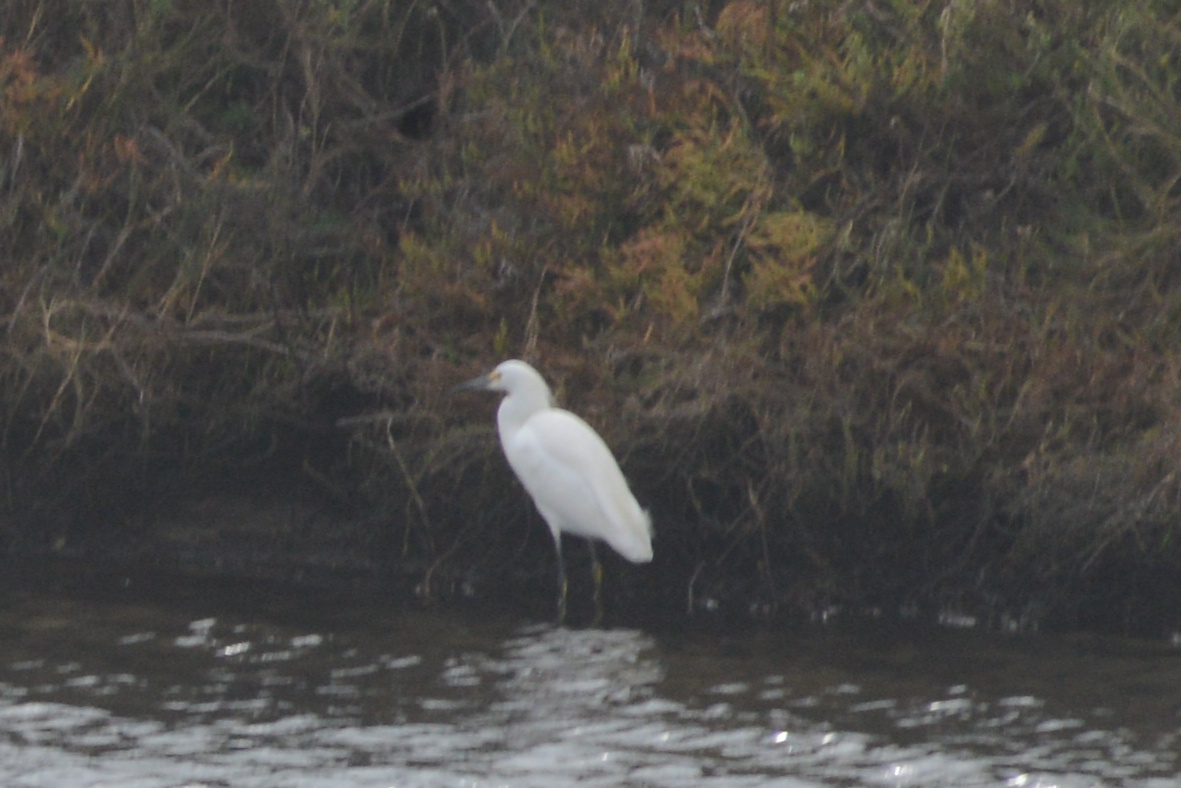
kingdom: Animalia
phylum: Chordata
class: Aves
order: Pelecaniformes
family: Ardeidae
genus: Egretta
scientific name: Egretta thula
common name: Snowy egret
